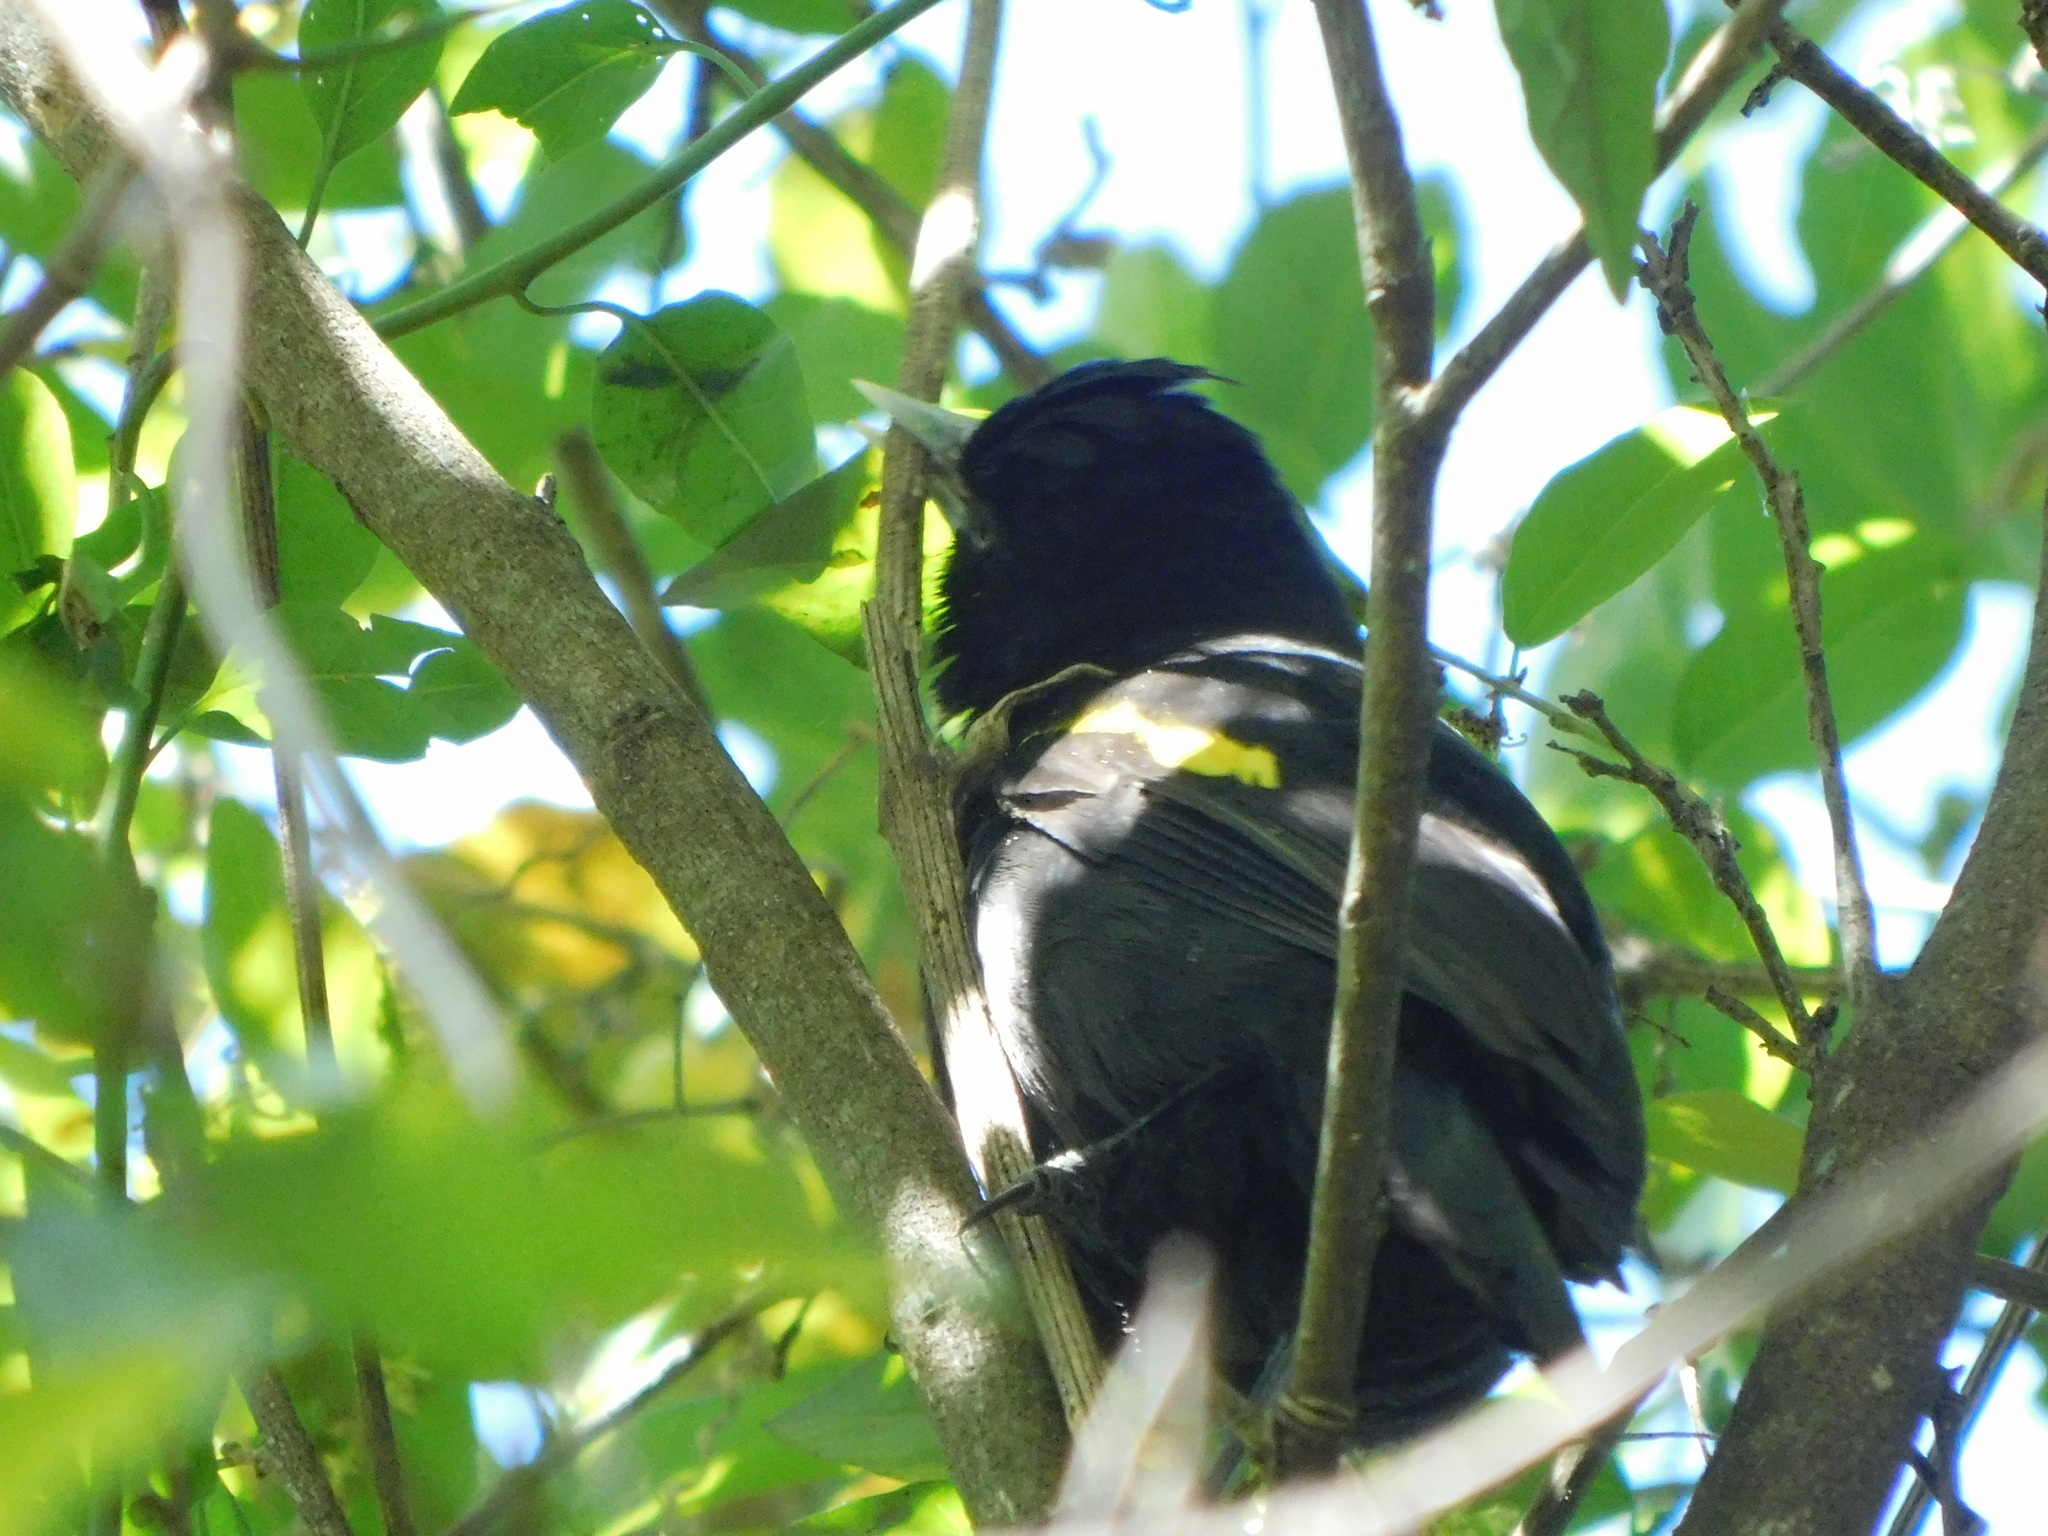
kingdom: Animalia
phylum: Chordata
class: Aves
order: Passeriformes
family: Icteridae
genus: Cacicus
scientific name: Cacicus chrysopterus
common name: Golden-winged cacique
